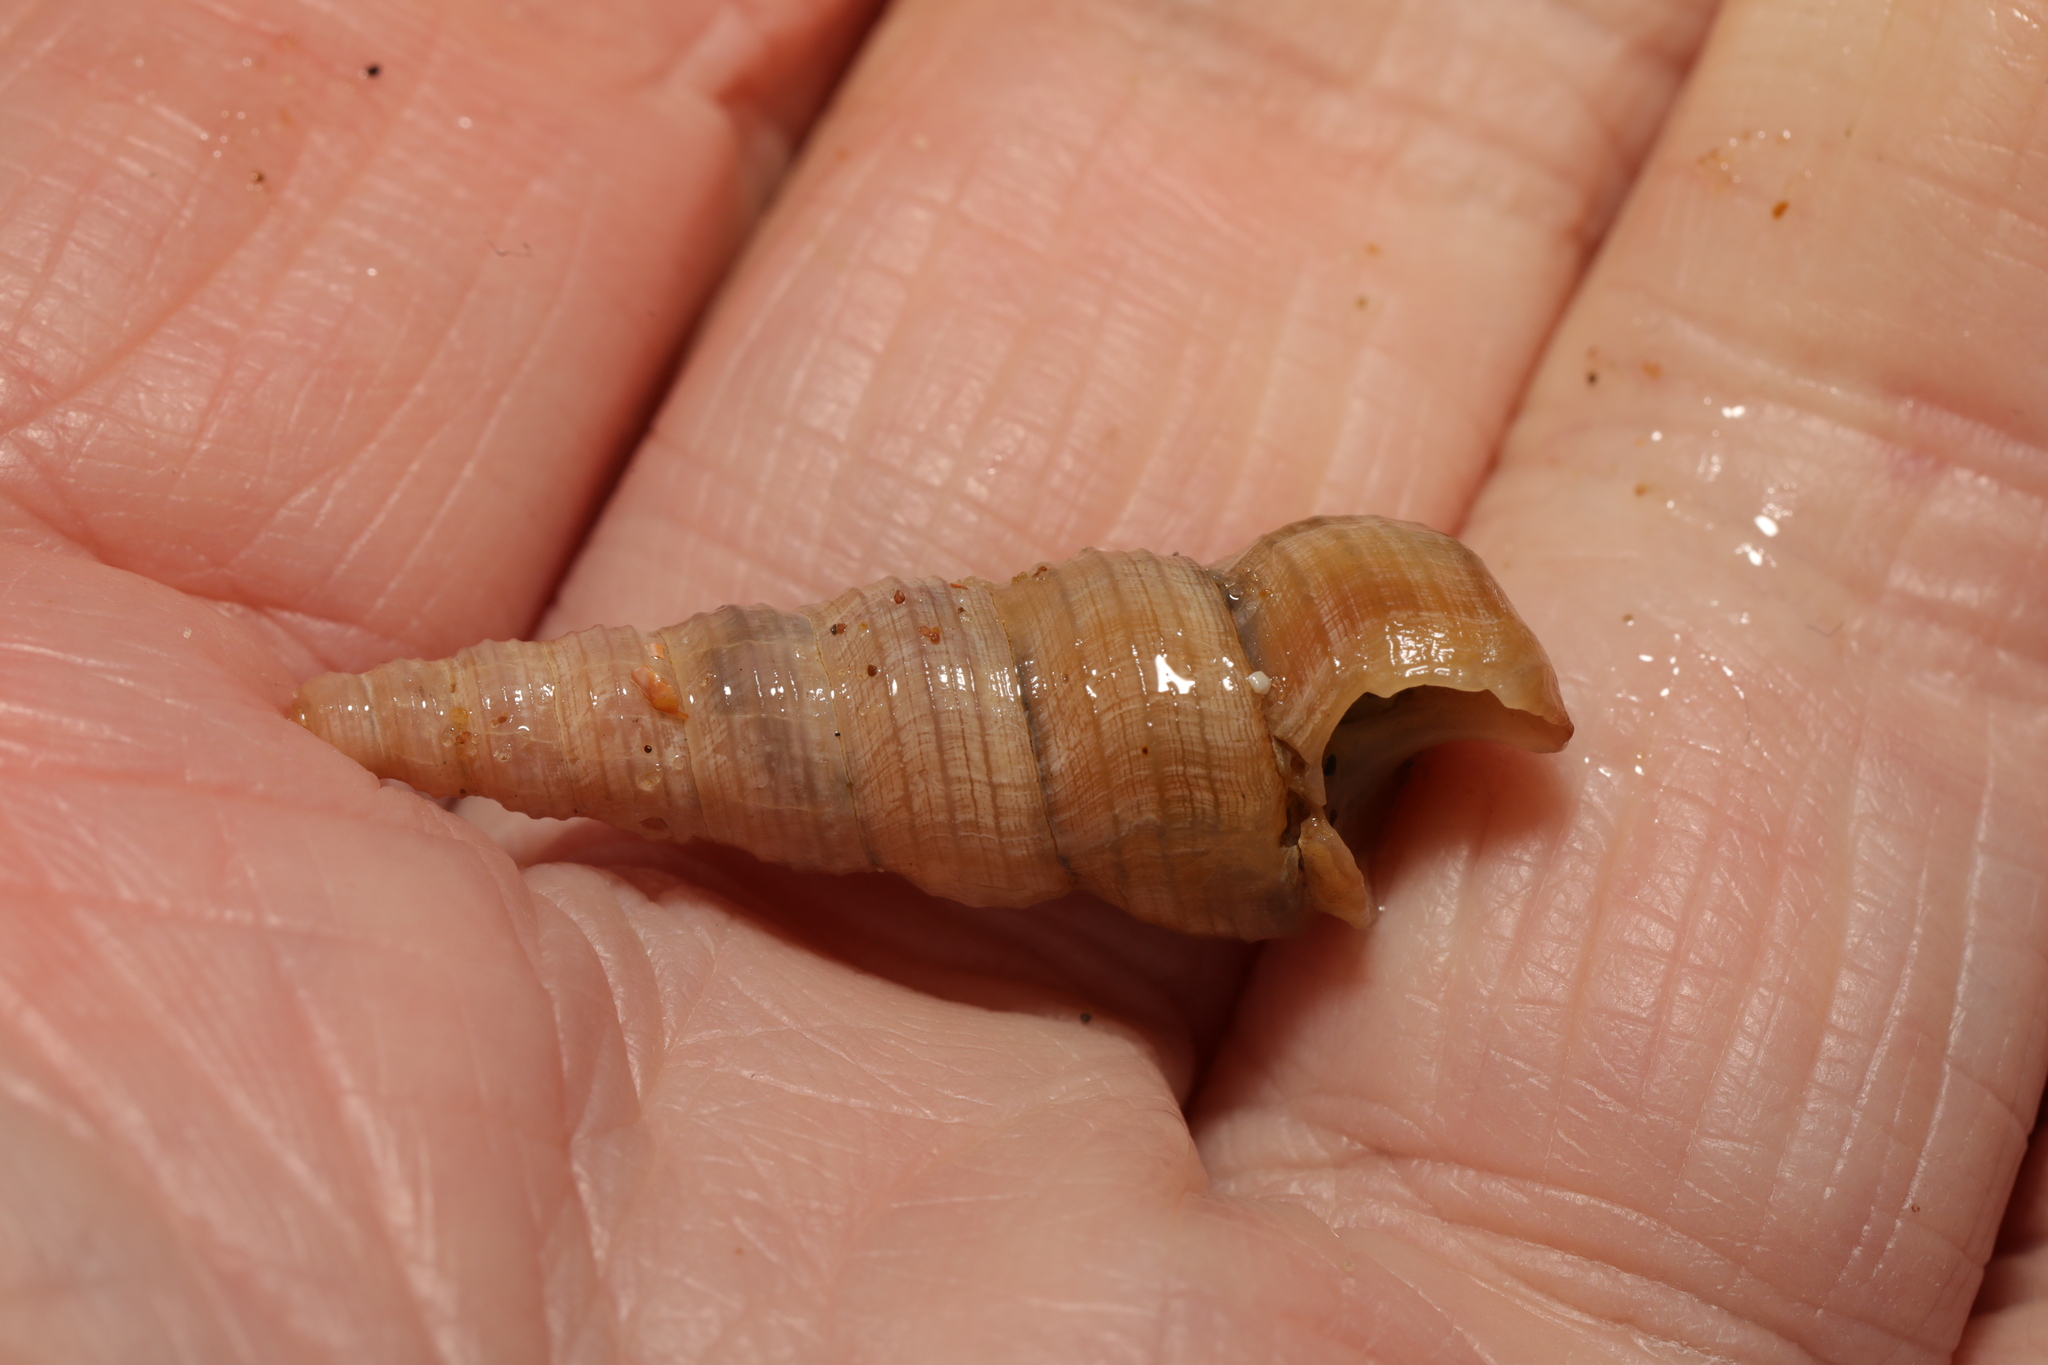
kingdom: Animalia
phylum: Mollusca
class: Gastropoda
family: Turritellidae
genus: Turritellinella
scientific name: Turritellinella tricarinata
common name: Auger shell
